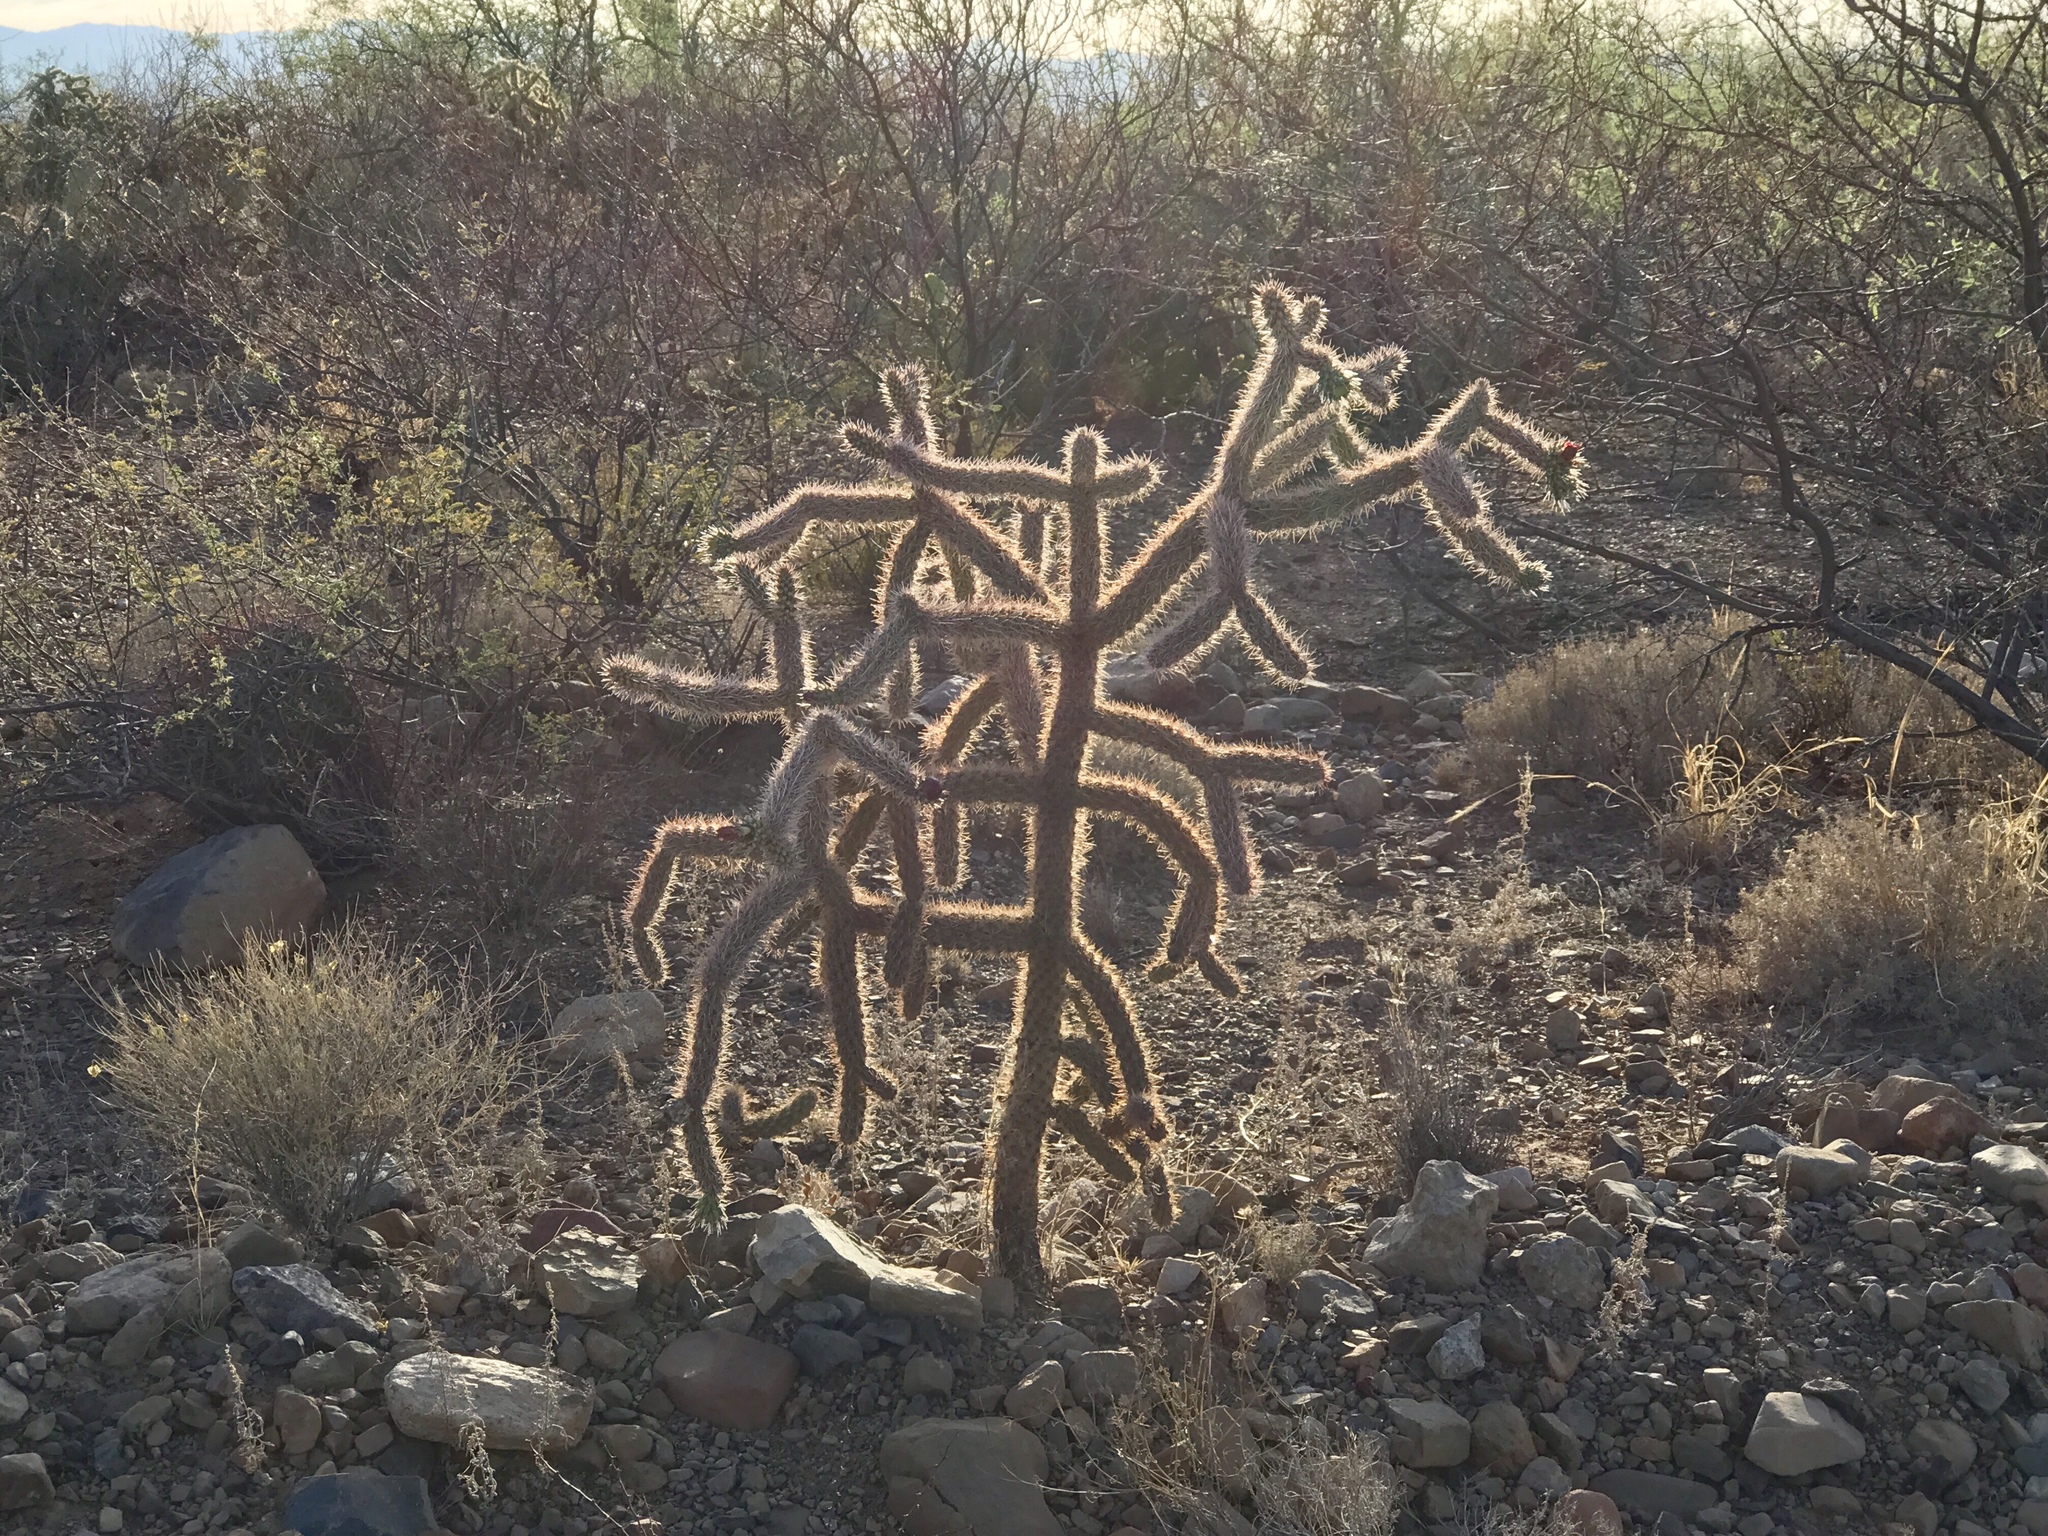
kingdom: Plantae
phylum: Tracheophyta
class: Magnoliopsida
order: Caryophyllales
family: Cactaceae
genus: Cylindropuntia
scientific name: Cylindropuntia imbricata
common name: Candelabrum cactus
